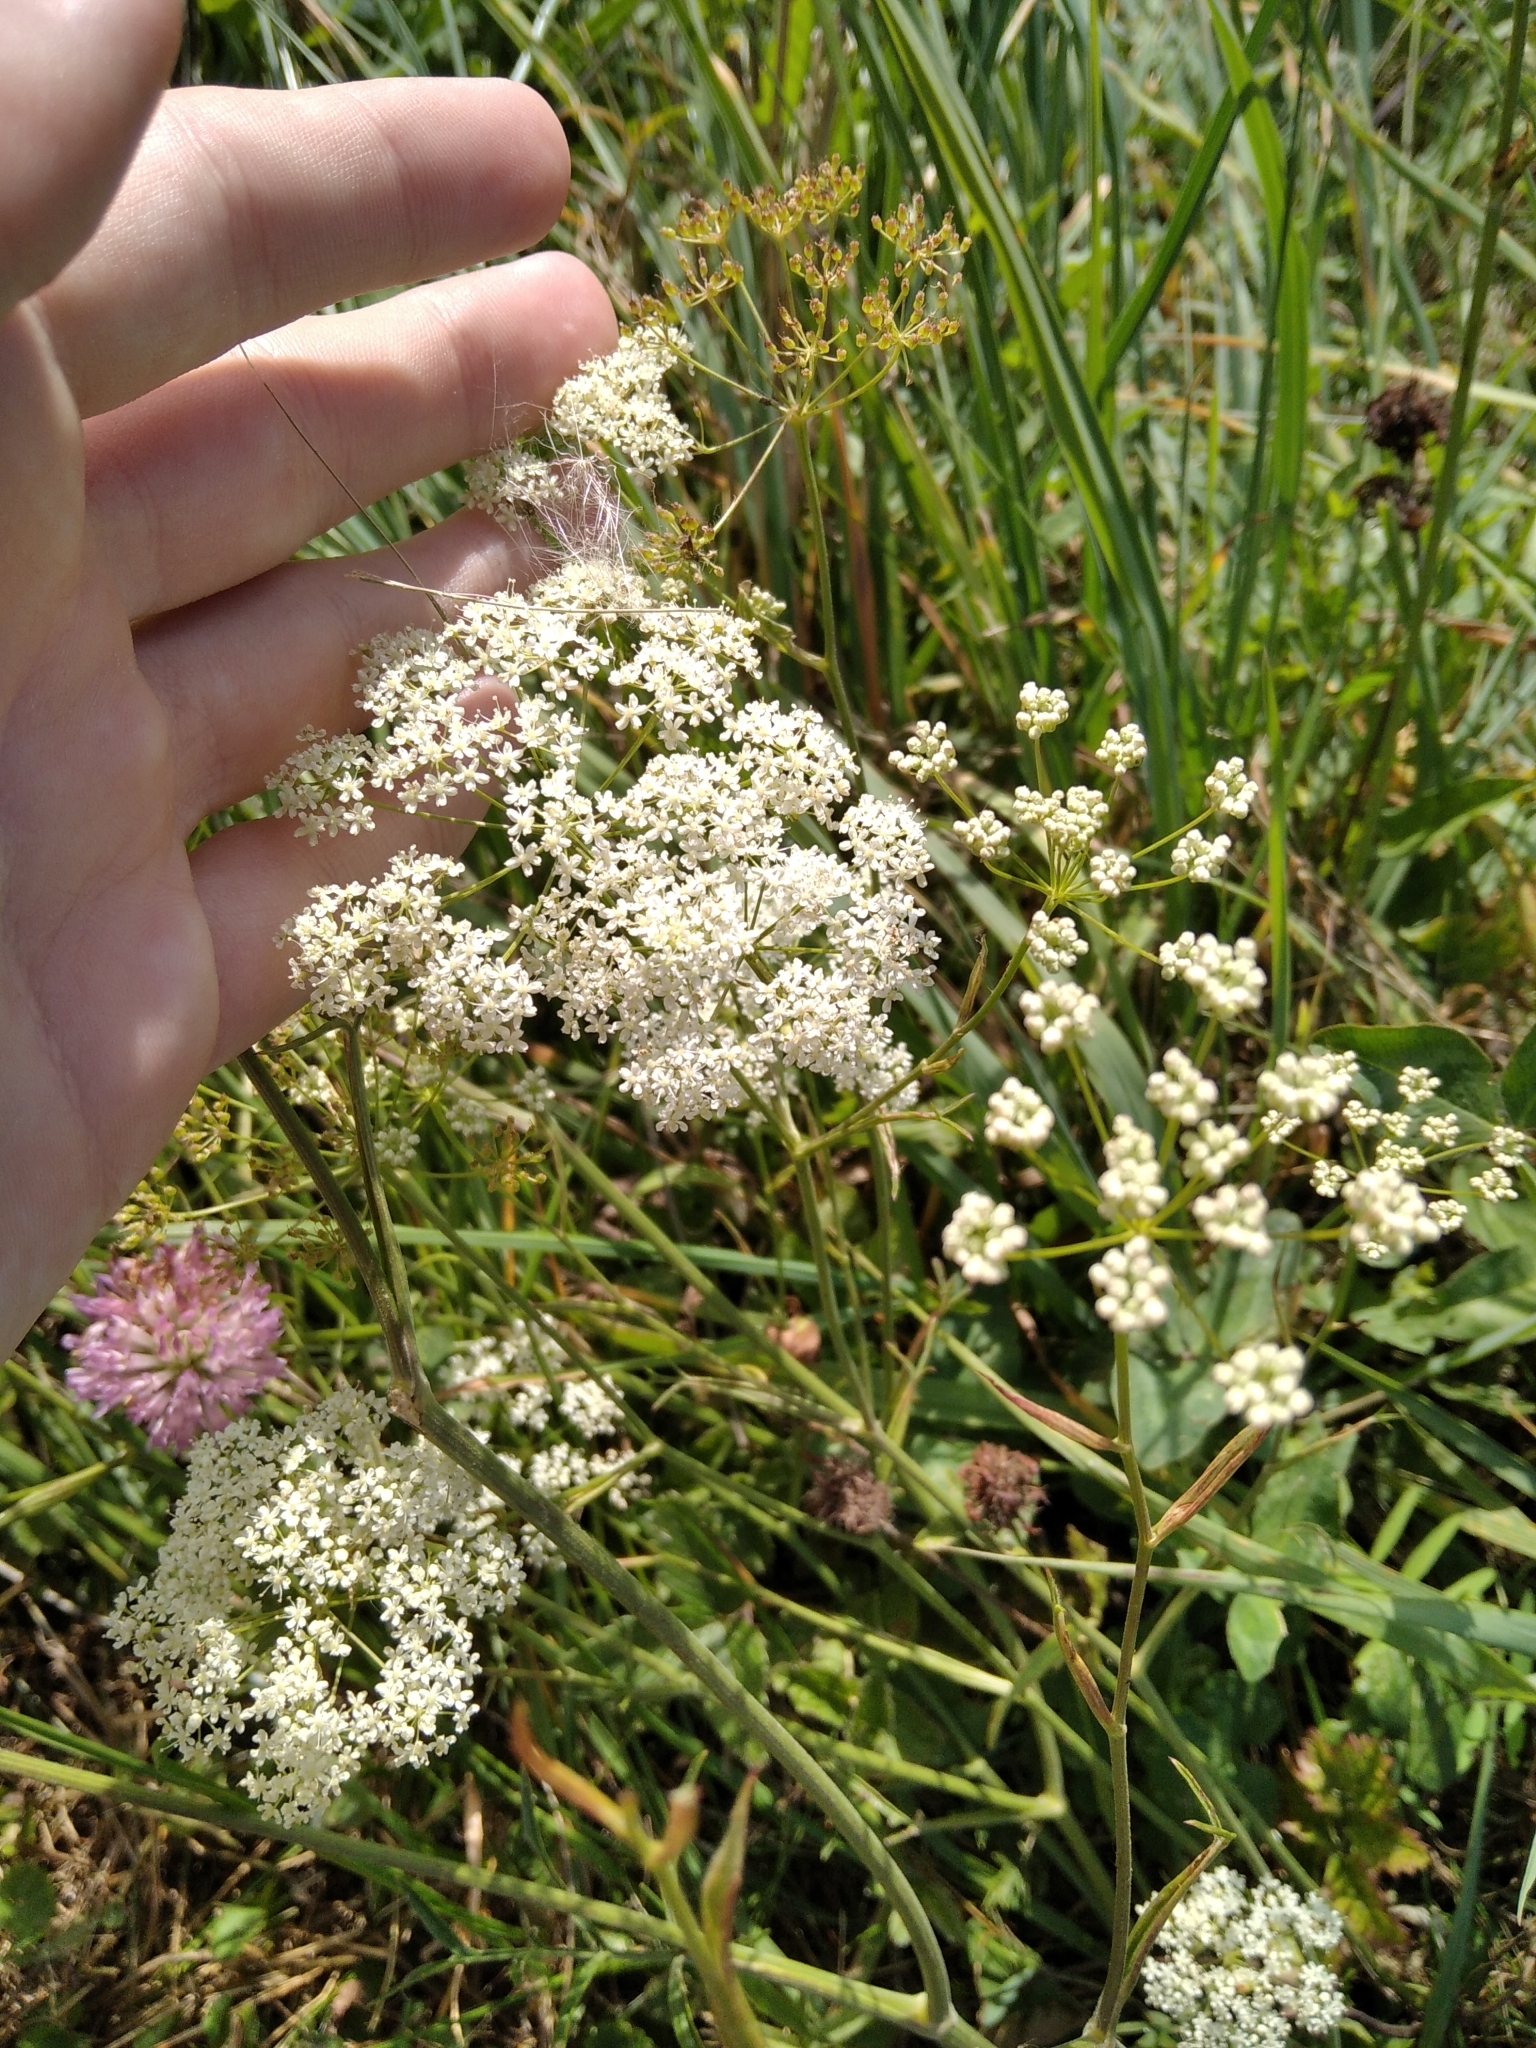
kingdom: Plantae
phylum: Tracheophyta
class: Magnoliopsida
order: Apiales
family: Apiaceae
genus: Pimpinella
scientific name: Pimpinella saxifraga
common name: Burnet-saxifrage
